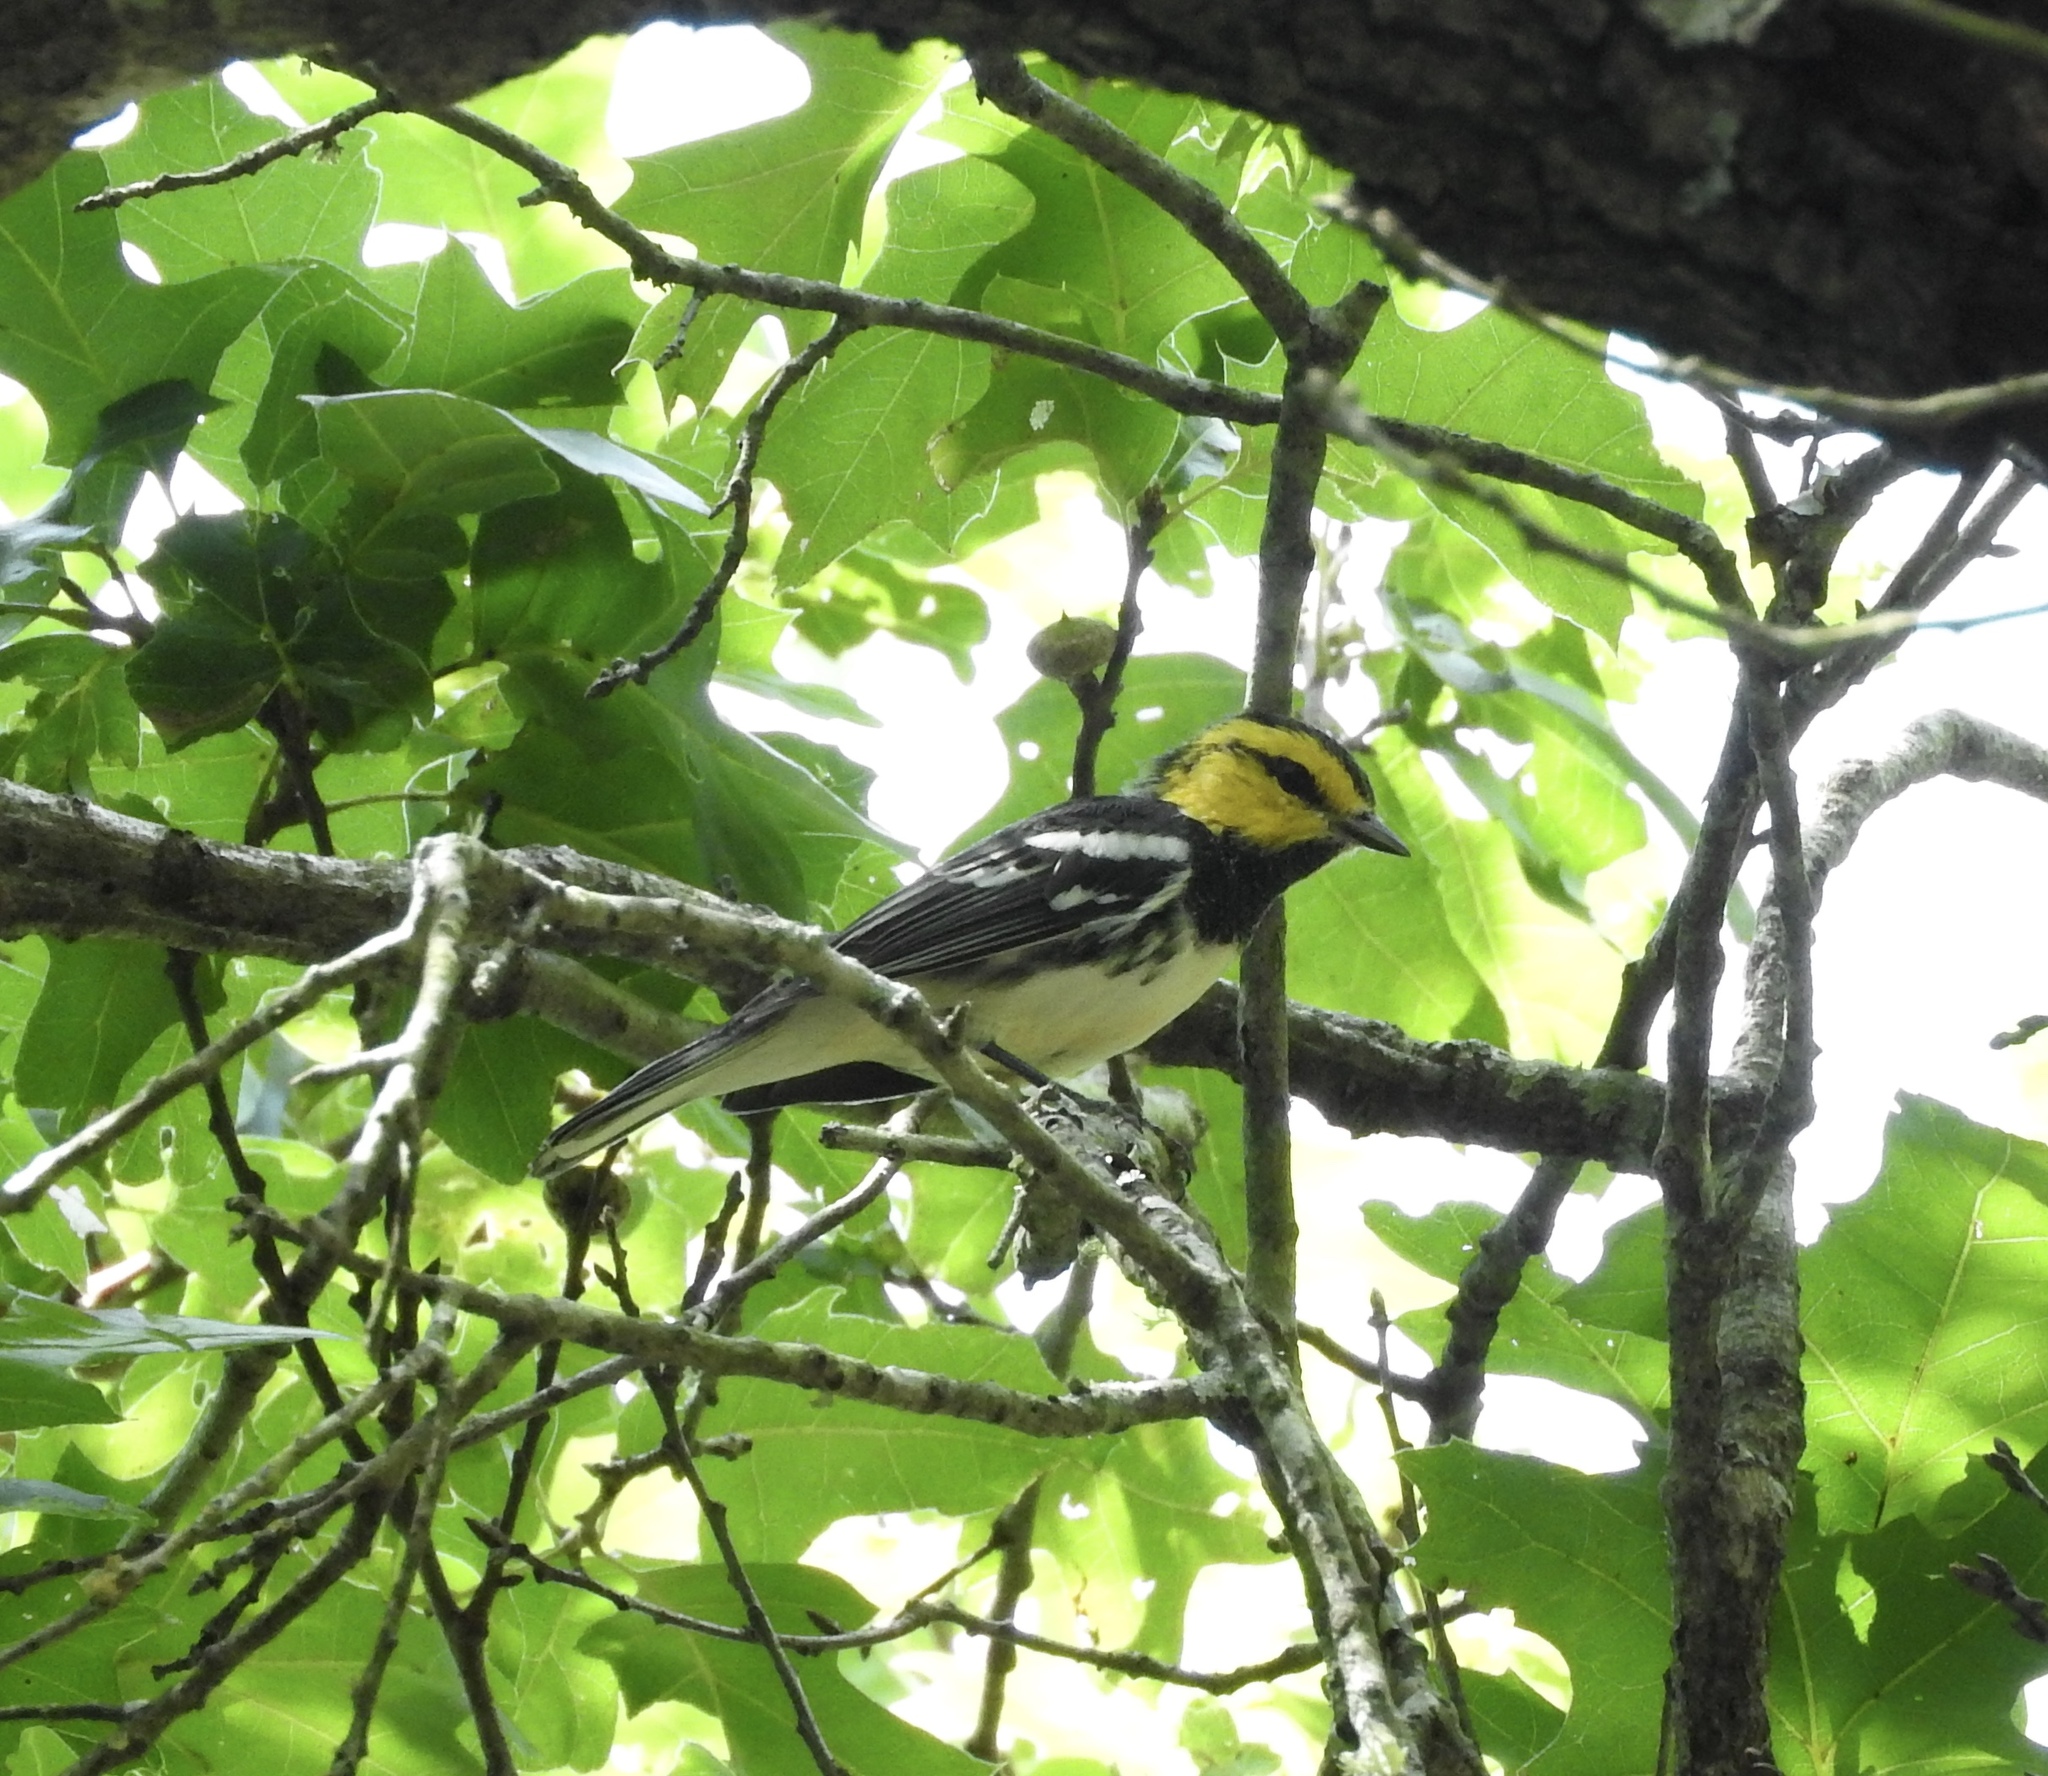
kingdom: Animalia
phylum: Chordata
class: Aves
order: Passeriformes
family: Parulidae
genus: Setophaga
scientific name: Setophaga chrysoparia
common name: Golden-cheeked warbler
